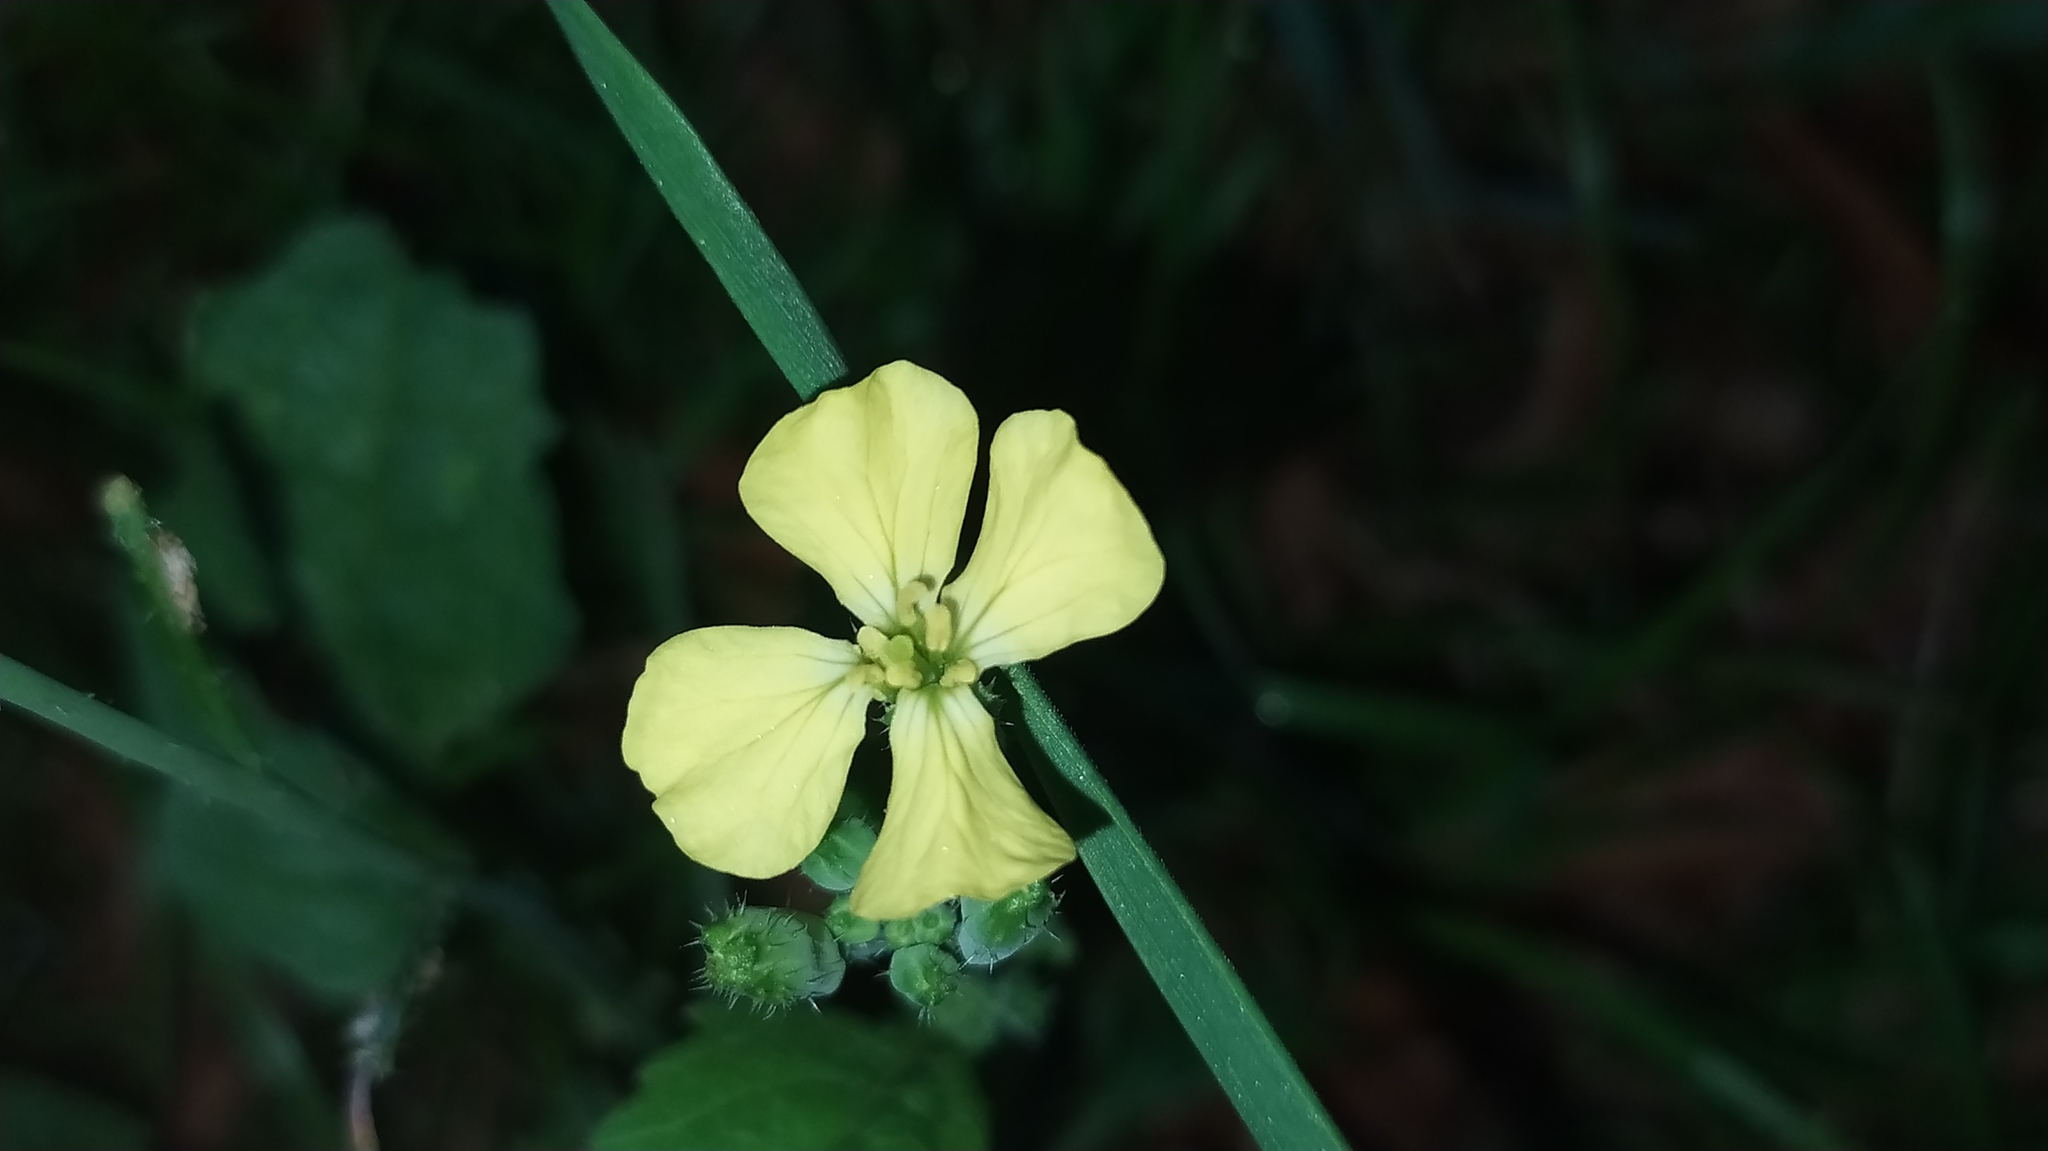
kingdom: Plantae
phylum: Tracheophyta
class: Magnoliopsida
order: Brassicales
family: Brassicaceae
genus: Raphanus
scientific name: Raphanus raphanistrum
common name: Wild radish
